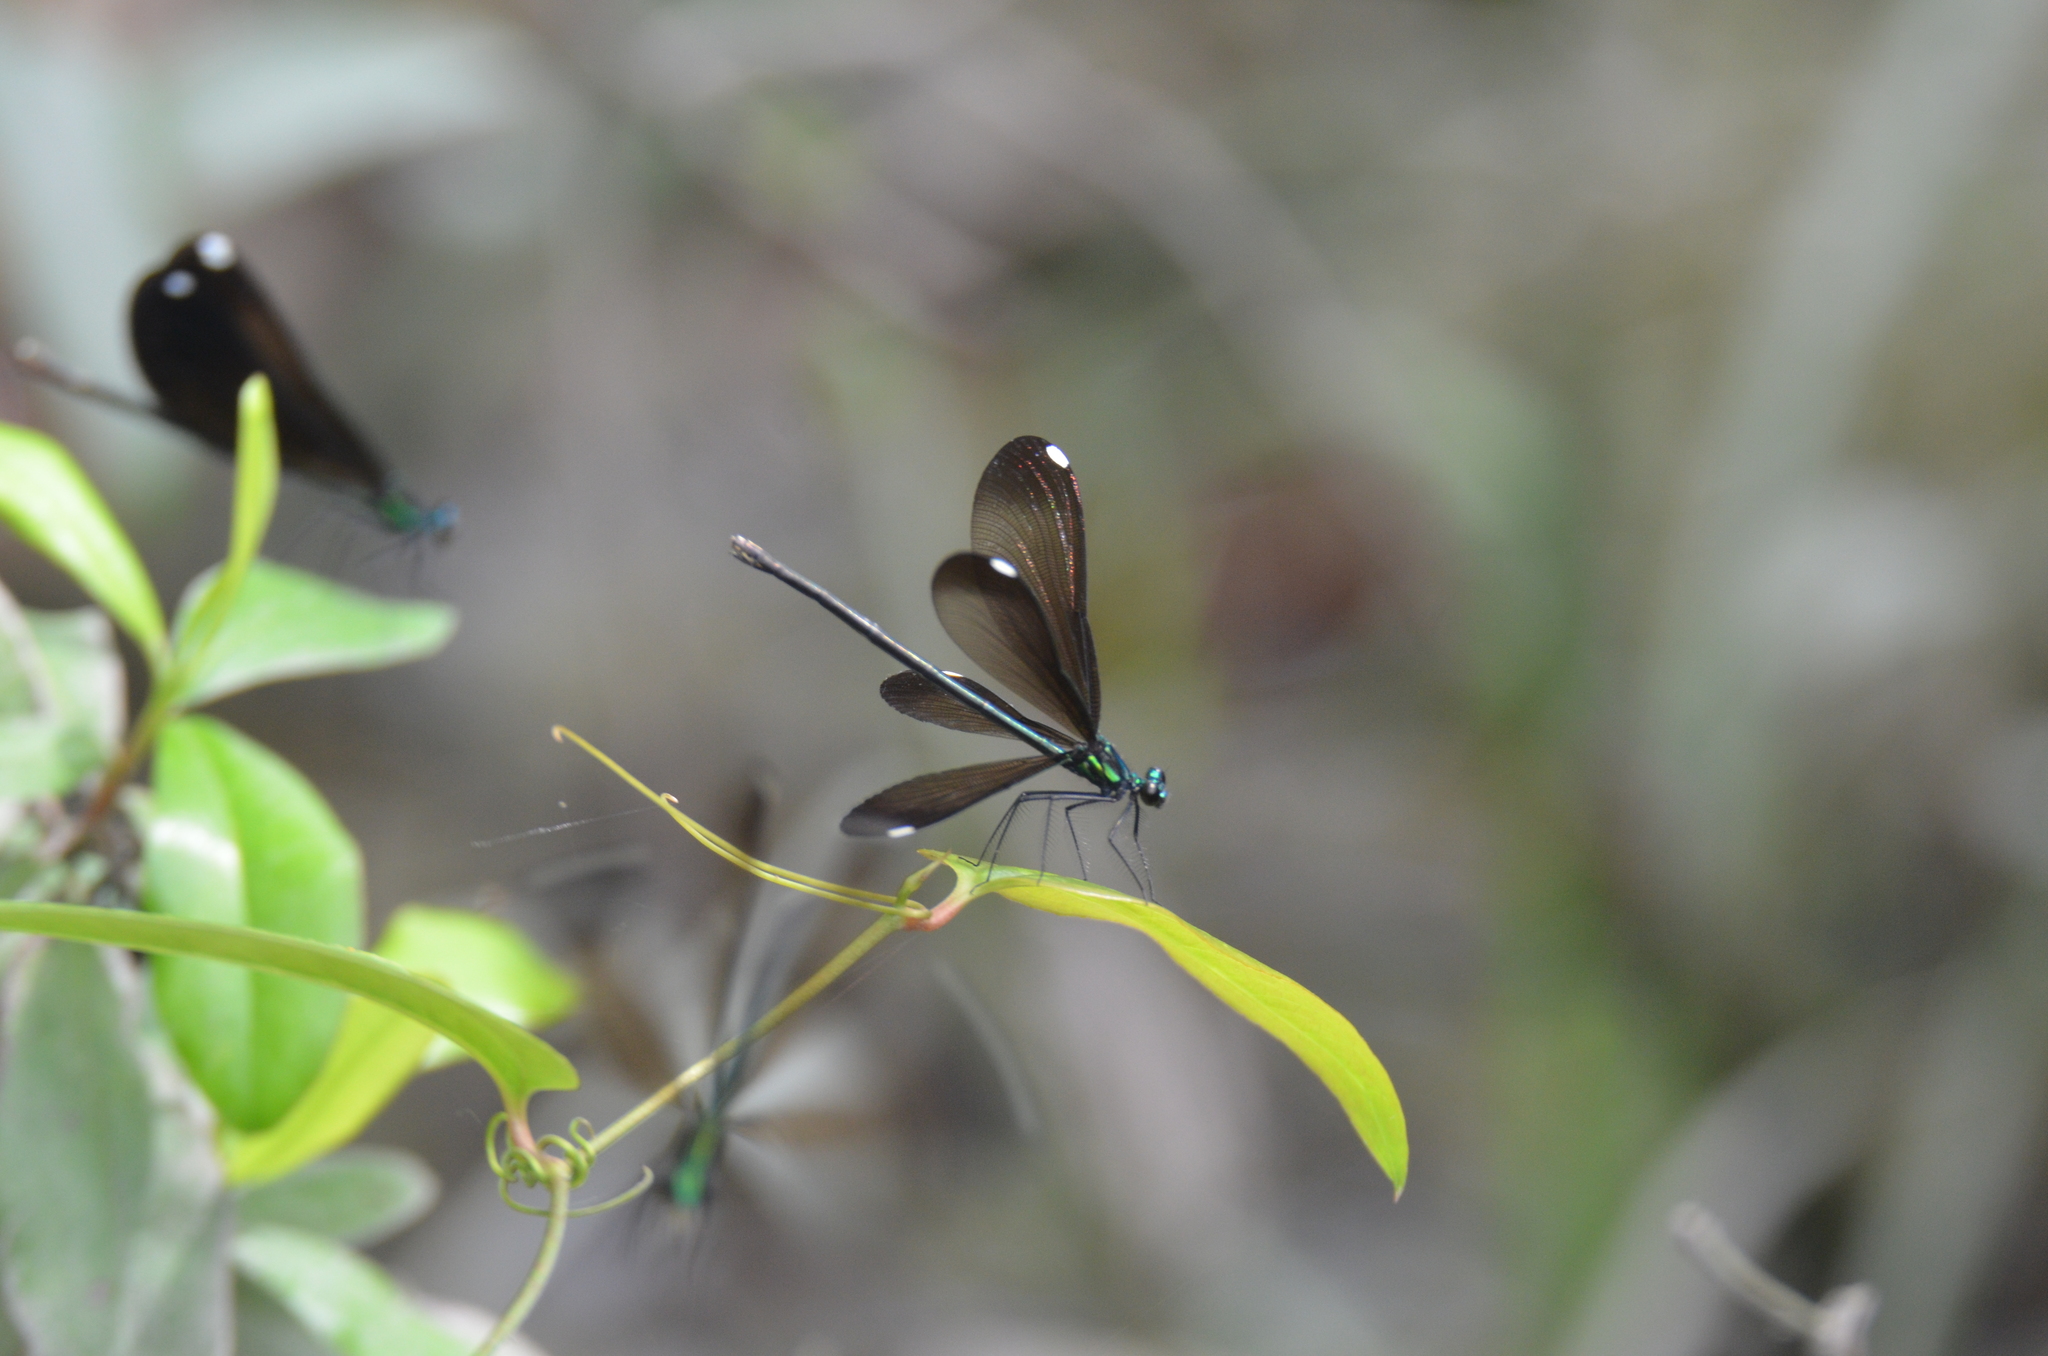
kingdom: Animalia
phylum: Arthropoda
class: Insecta
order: Odonata
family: Calopterygidae
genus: Calopteryx
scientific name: Calopteryx maculata
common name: Ebony jewelwing
